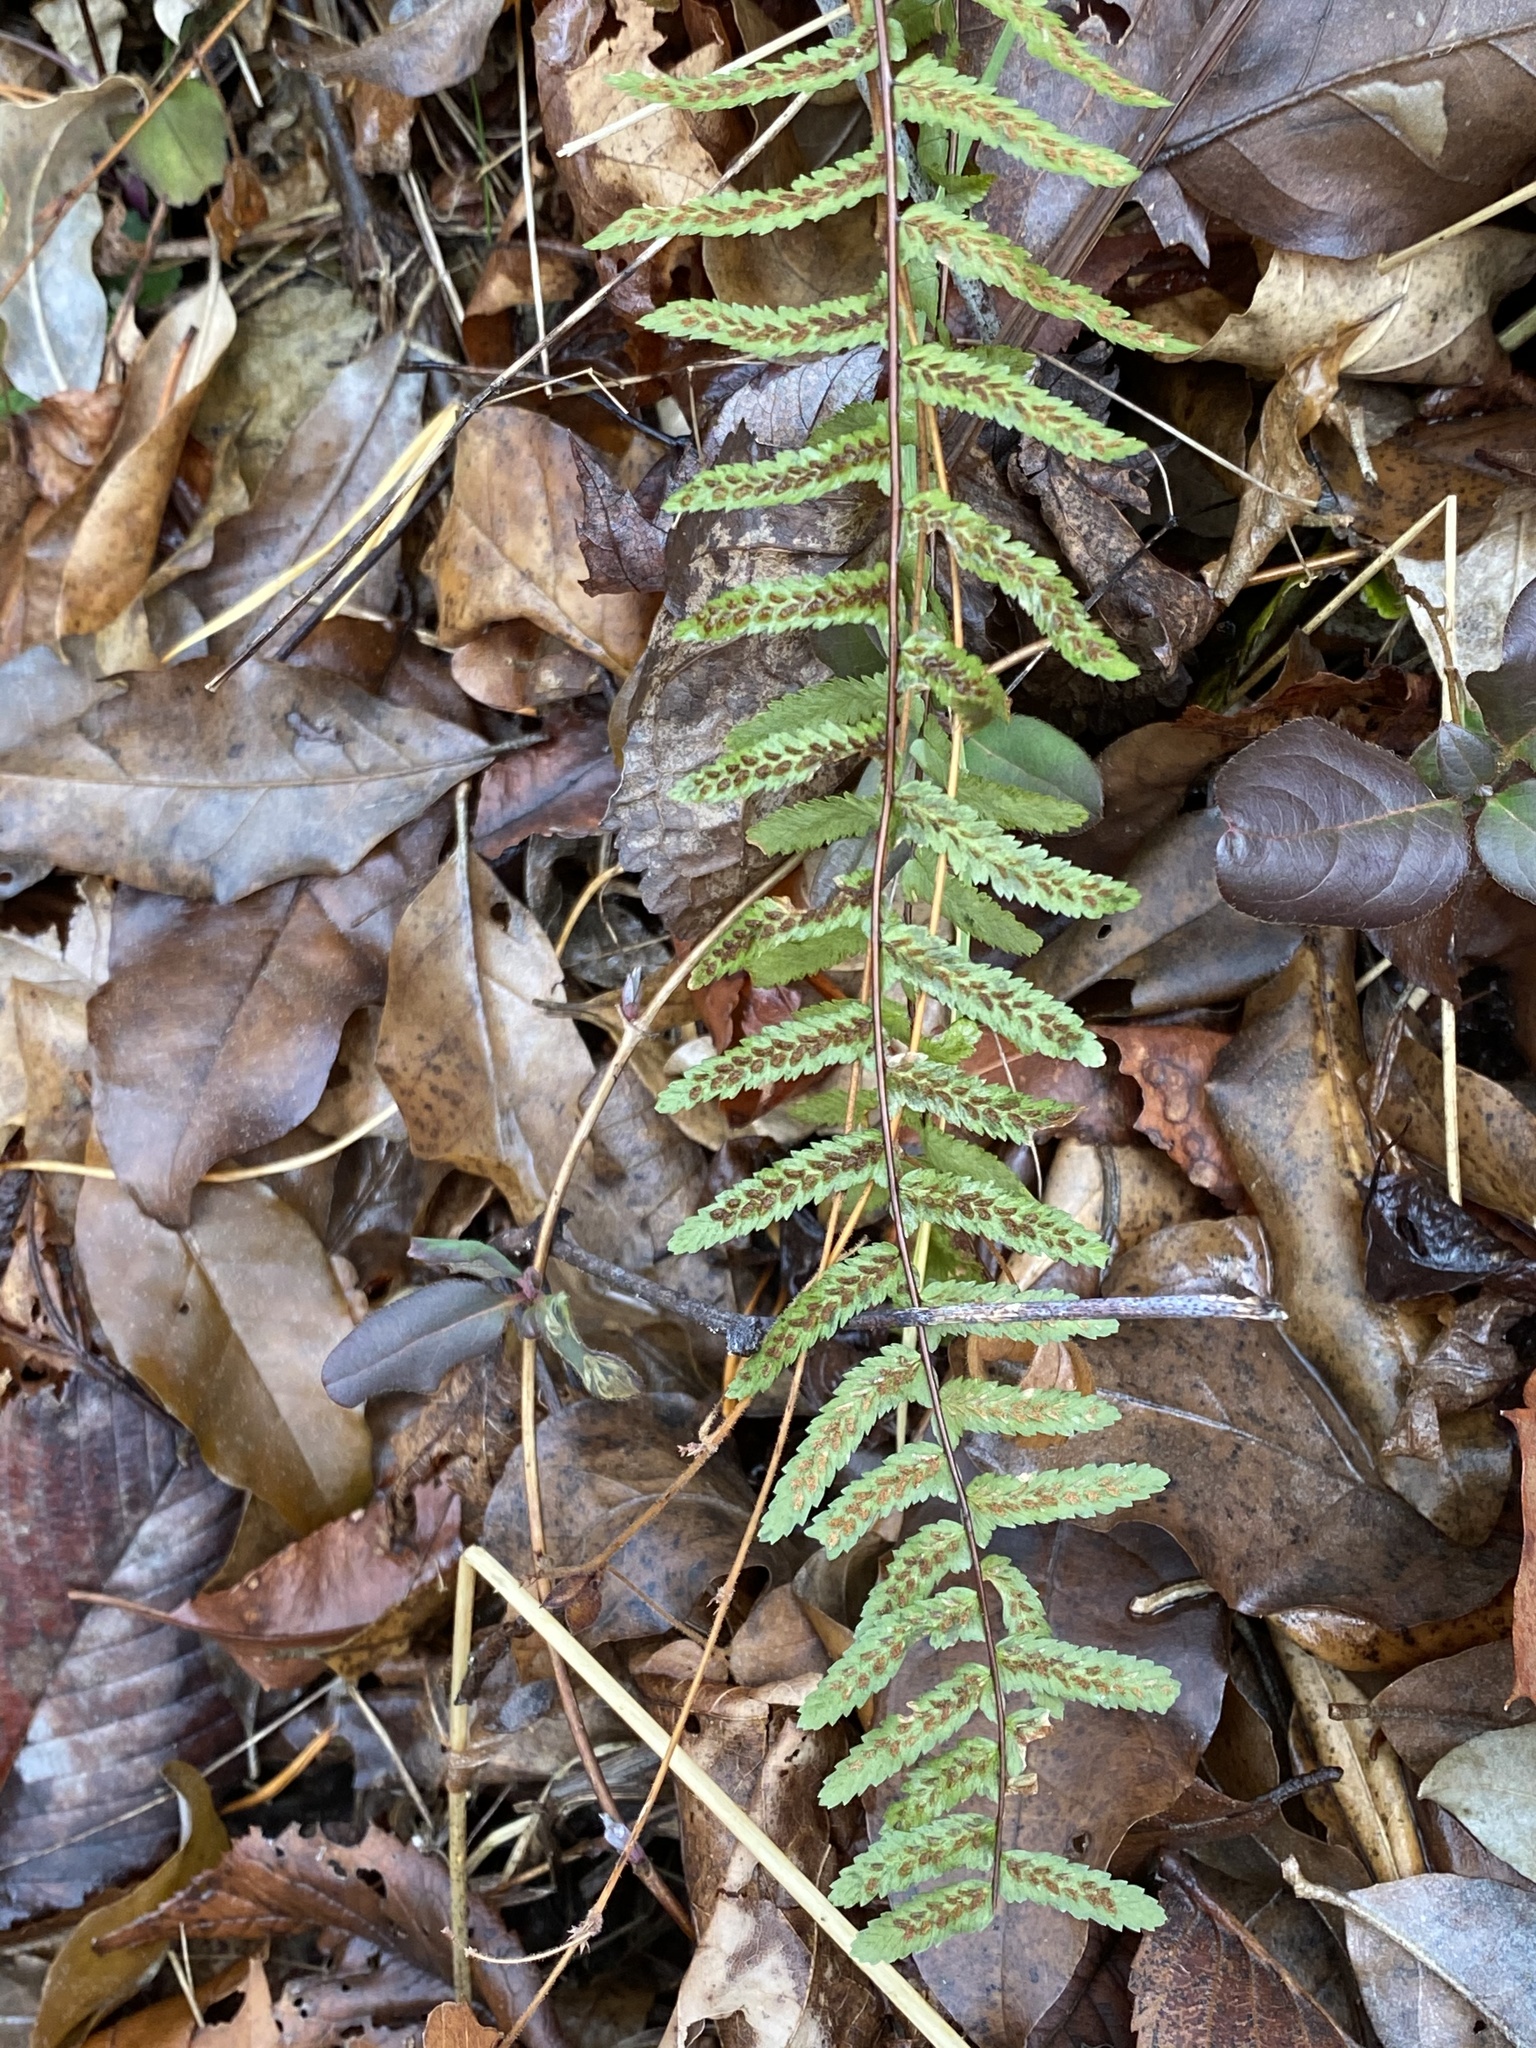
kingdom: Plantae
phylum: Tracheophyta
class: Polypodiopsida
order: Polypodiales
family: Aspleniaceae
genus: Asplenium
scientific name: Asplenium platyneuron
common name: Ebony spleenwort
